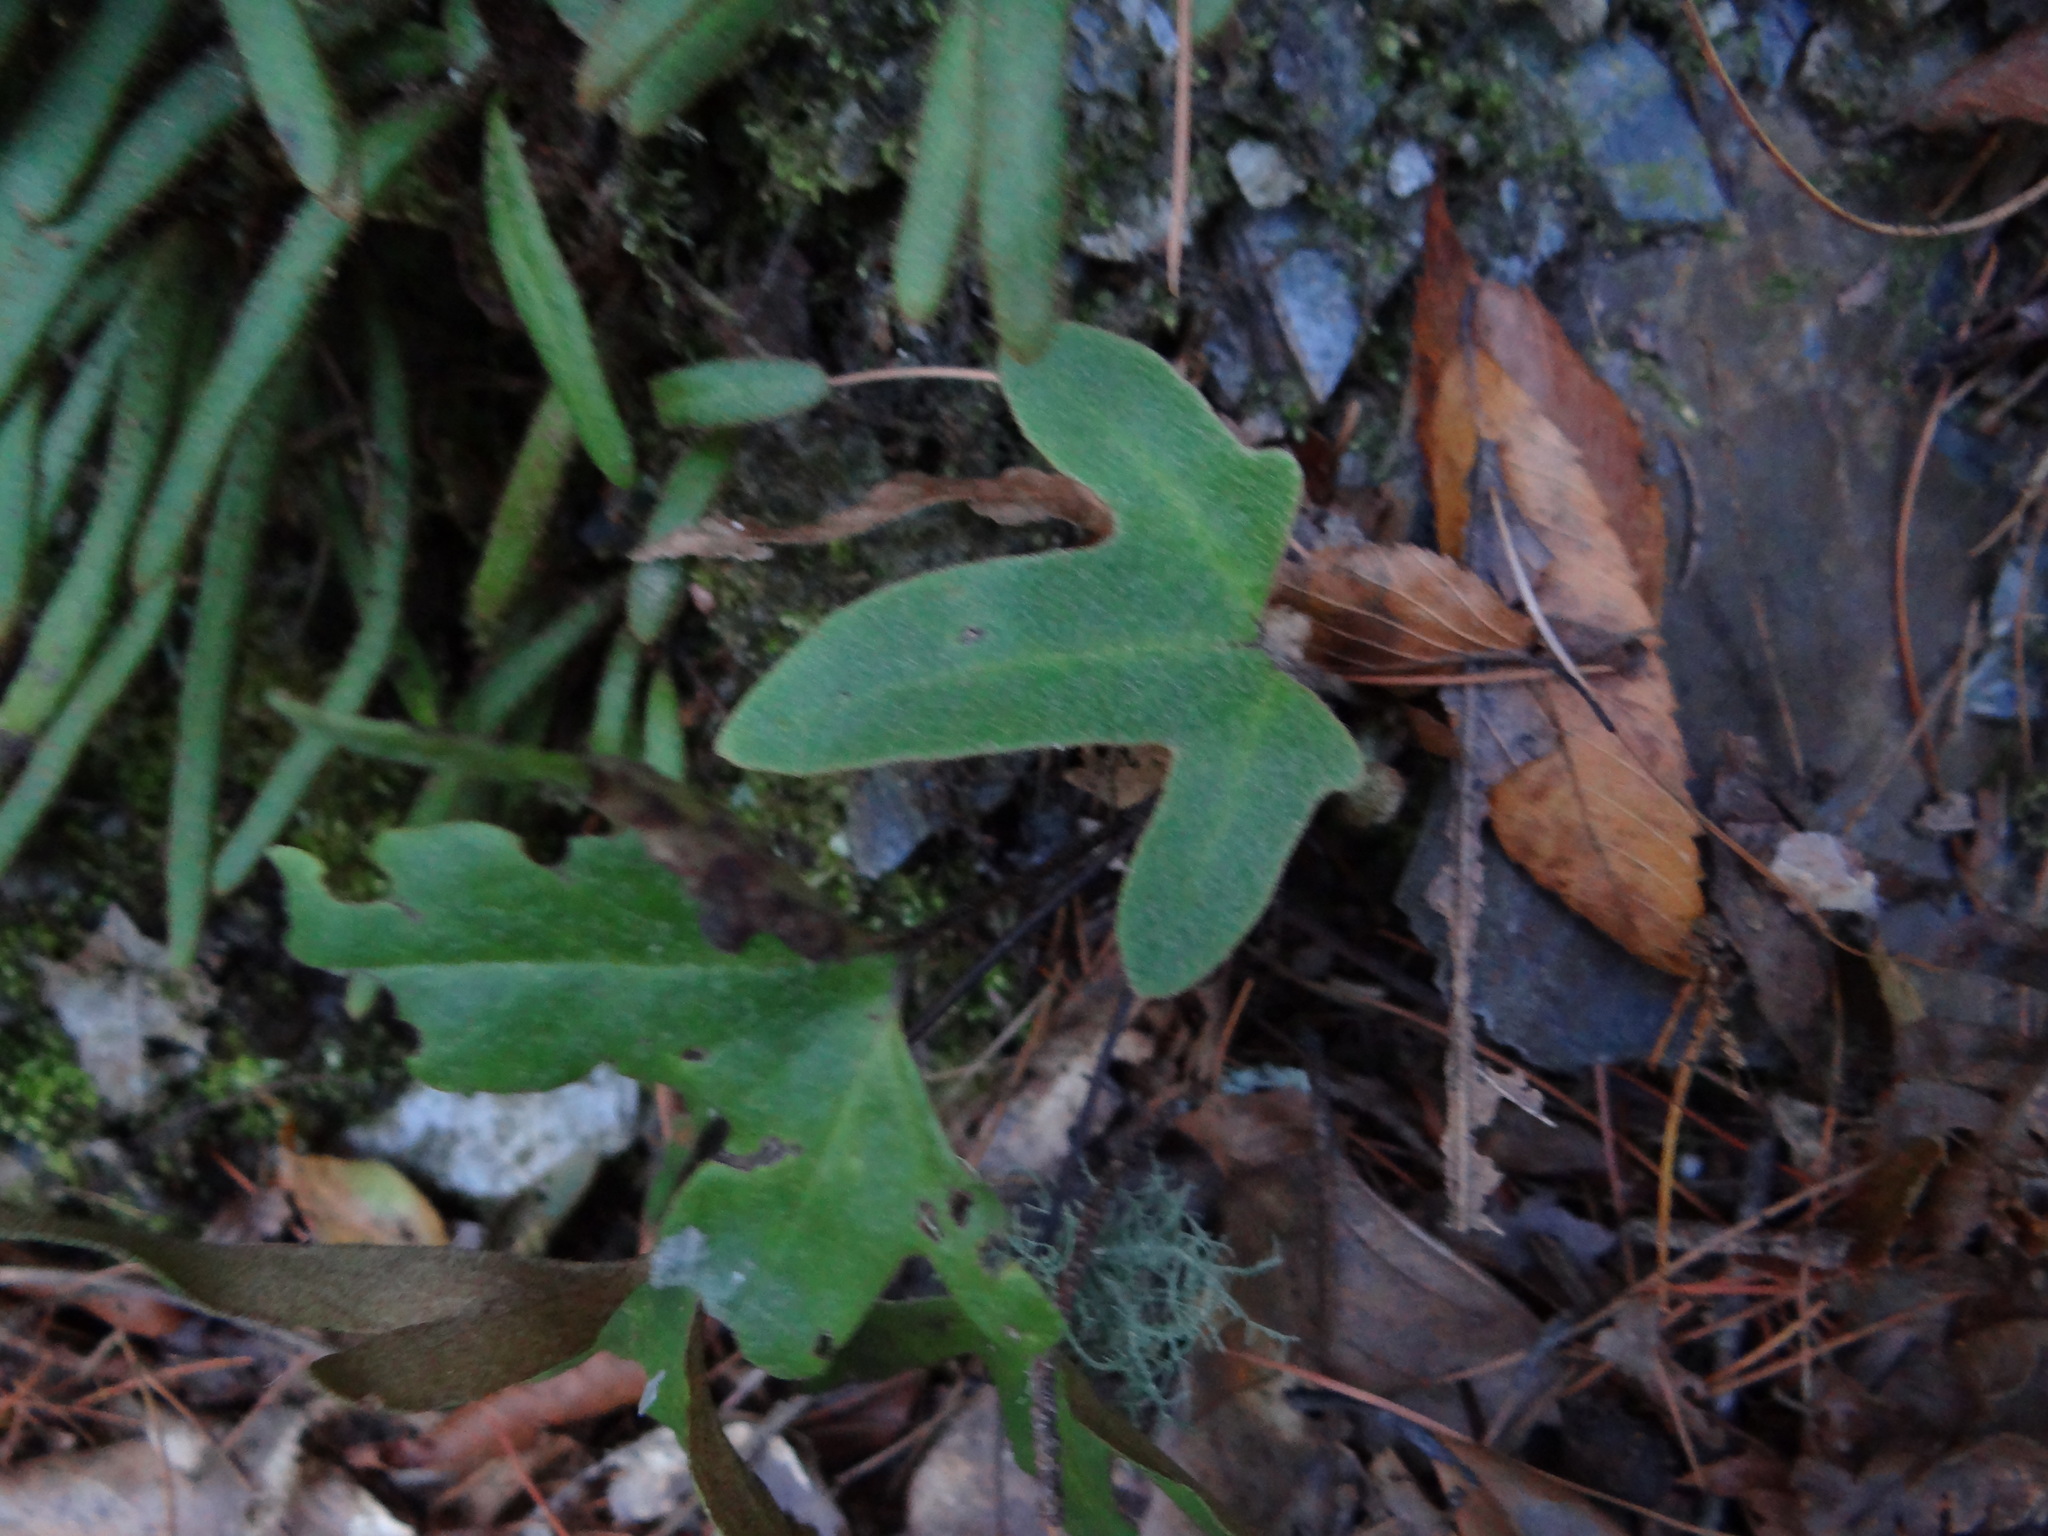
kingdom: Plantae
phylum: Tracheophyta
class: Polypodiopsida
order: Polypodiales
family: Polypodiaceae
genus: Pyrrosia
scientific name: Pyrrosia polydactyla
